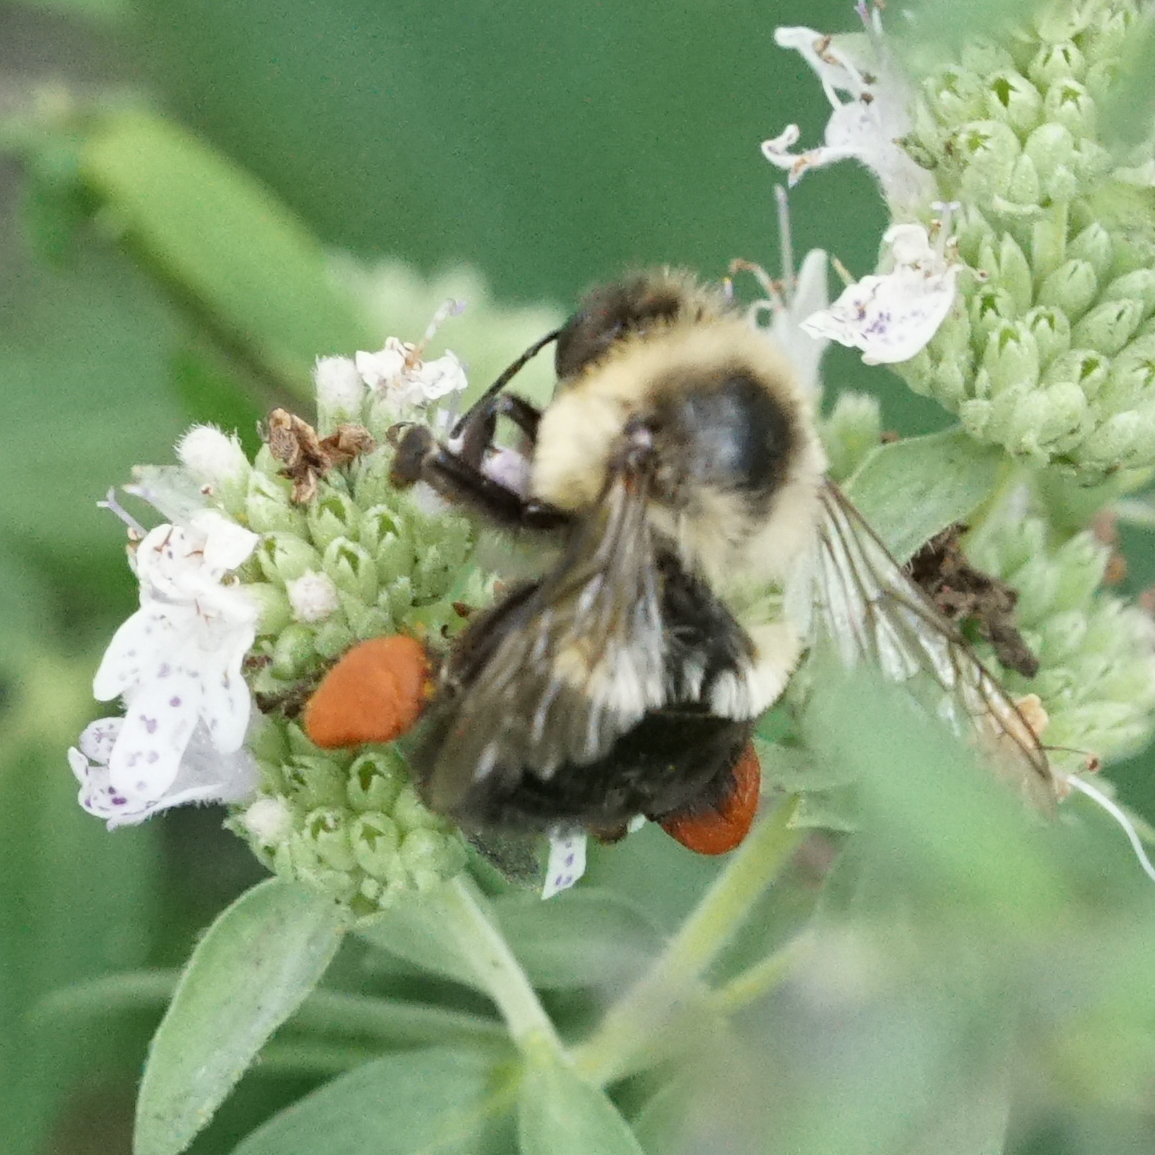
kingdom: Animalia
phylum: Arthropoda
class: Insecta
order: Hymenoptera
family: Apidae
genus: Bombus
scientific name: Bombus impatiens
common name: Common eastern bumble bee
